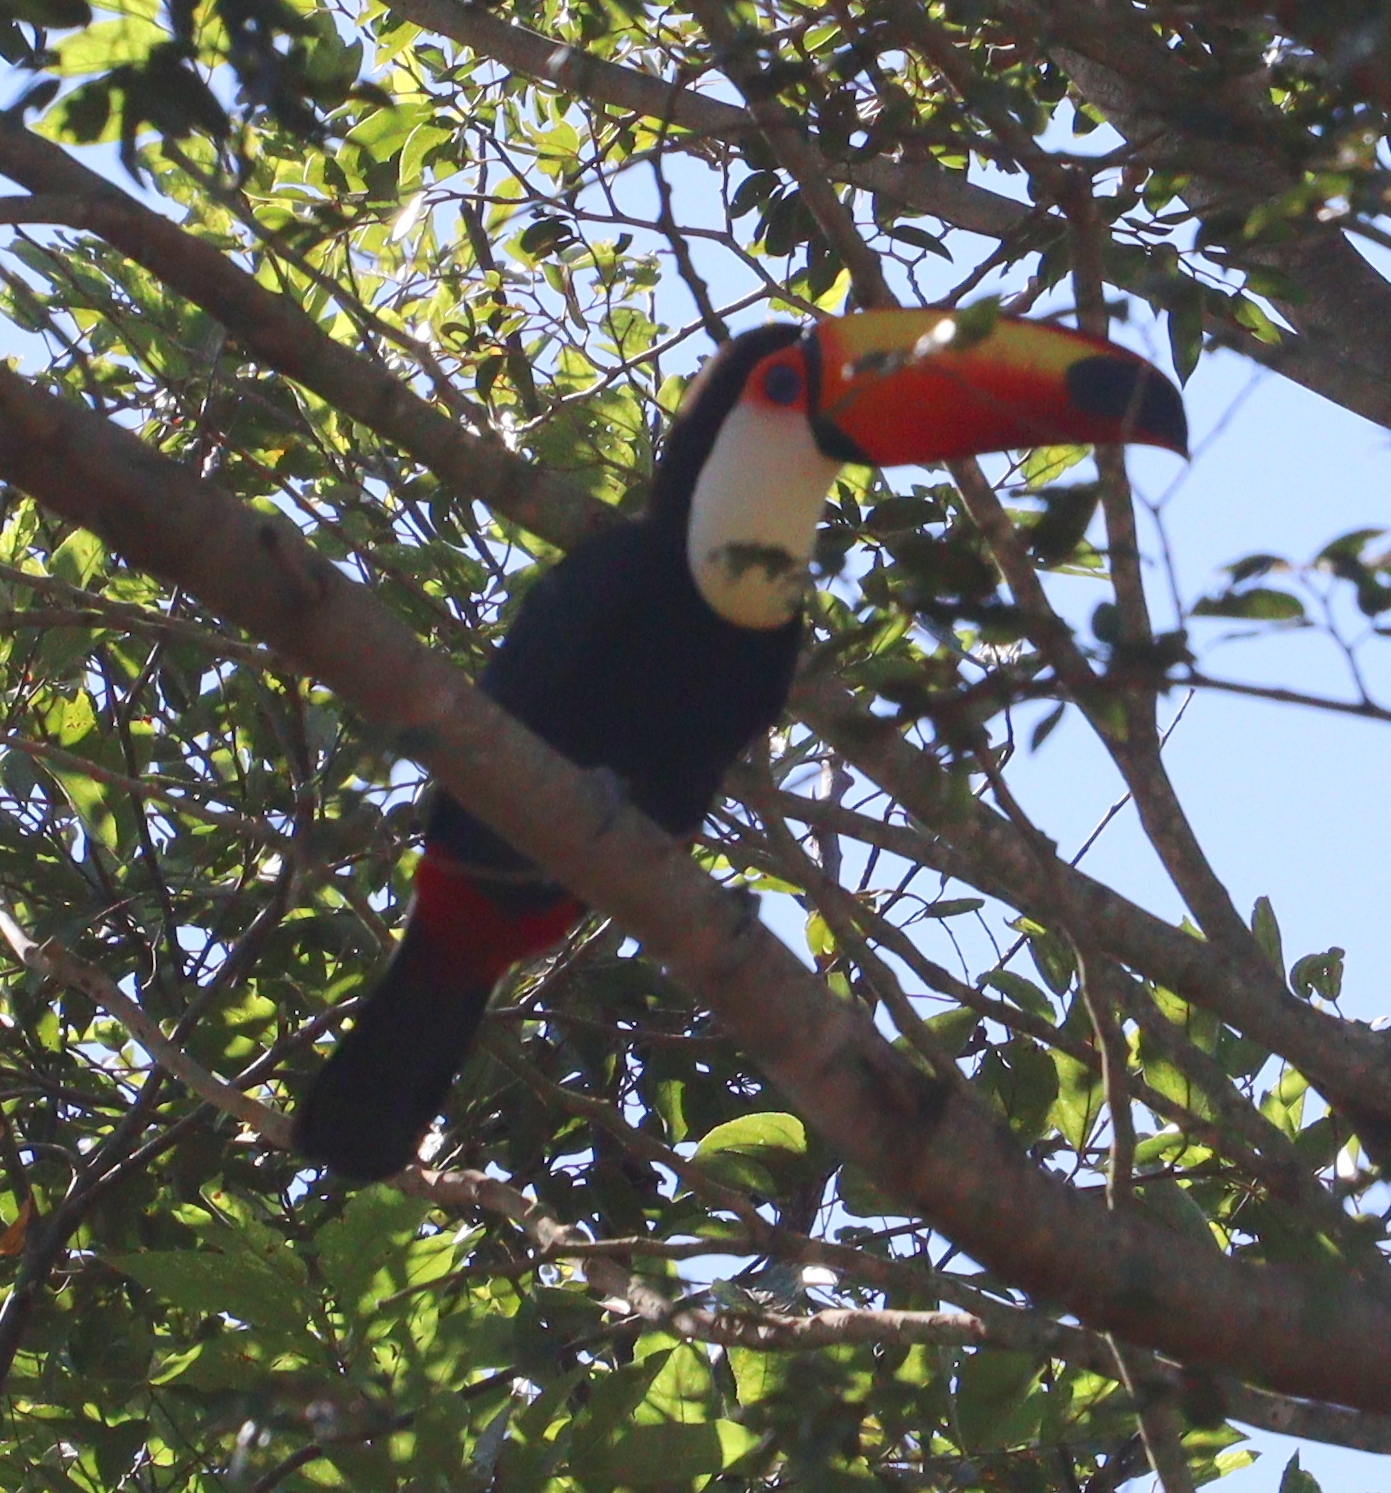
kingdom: Animalia
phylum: Chordata
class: Aves
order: Piciformes
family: Ramphastidae
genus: Ramphastos
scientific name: Ramphastos toco
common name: Toco toucan
